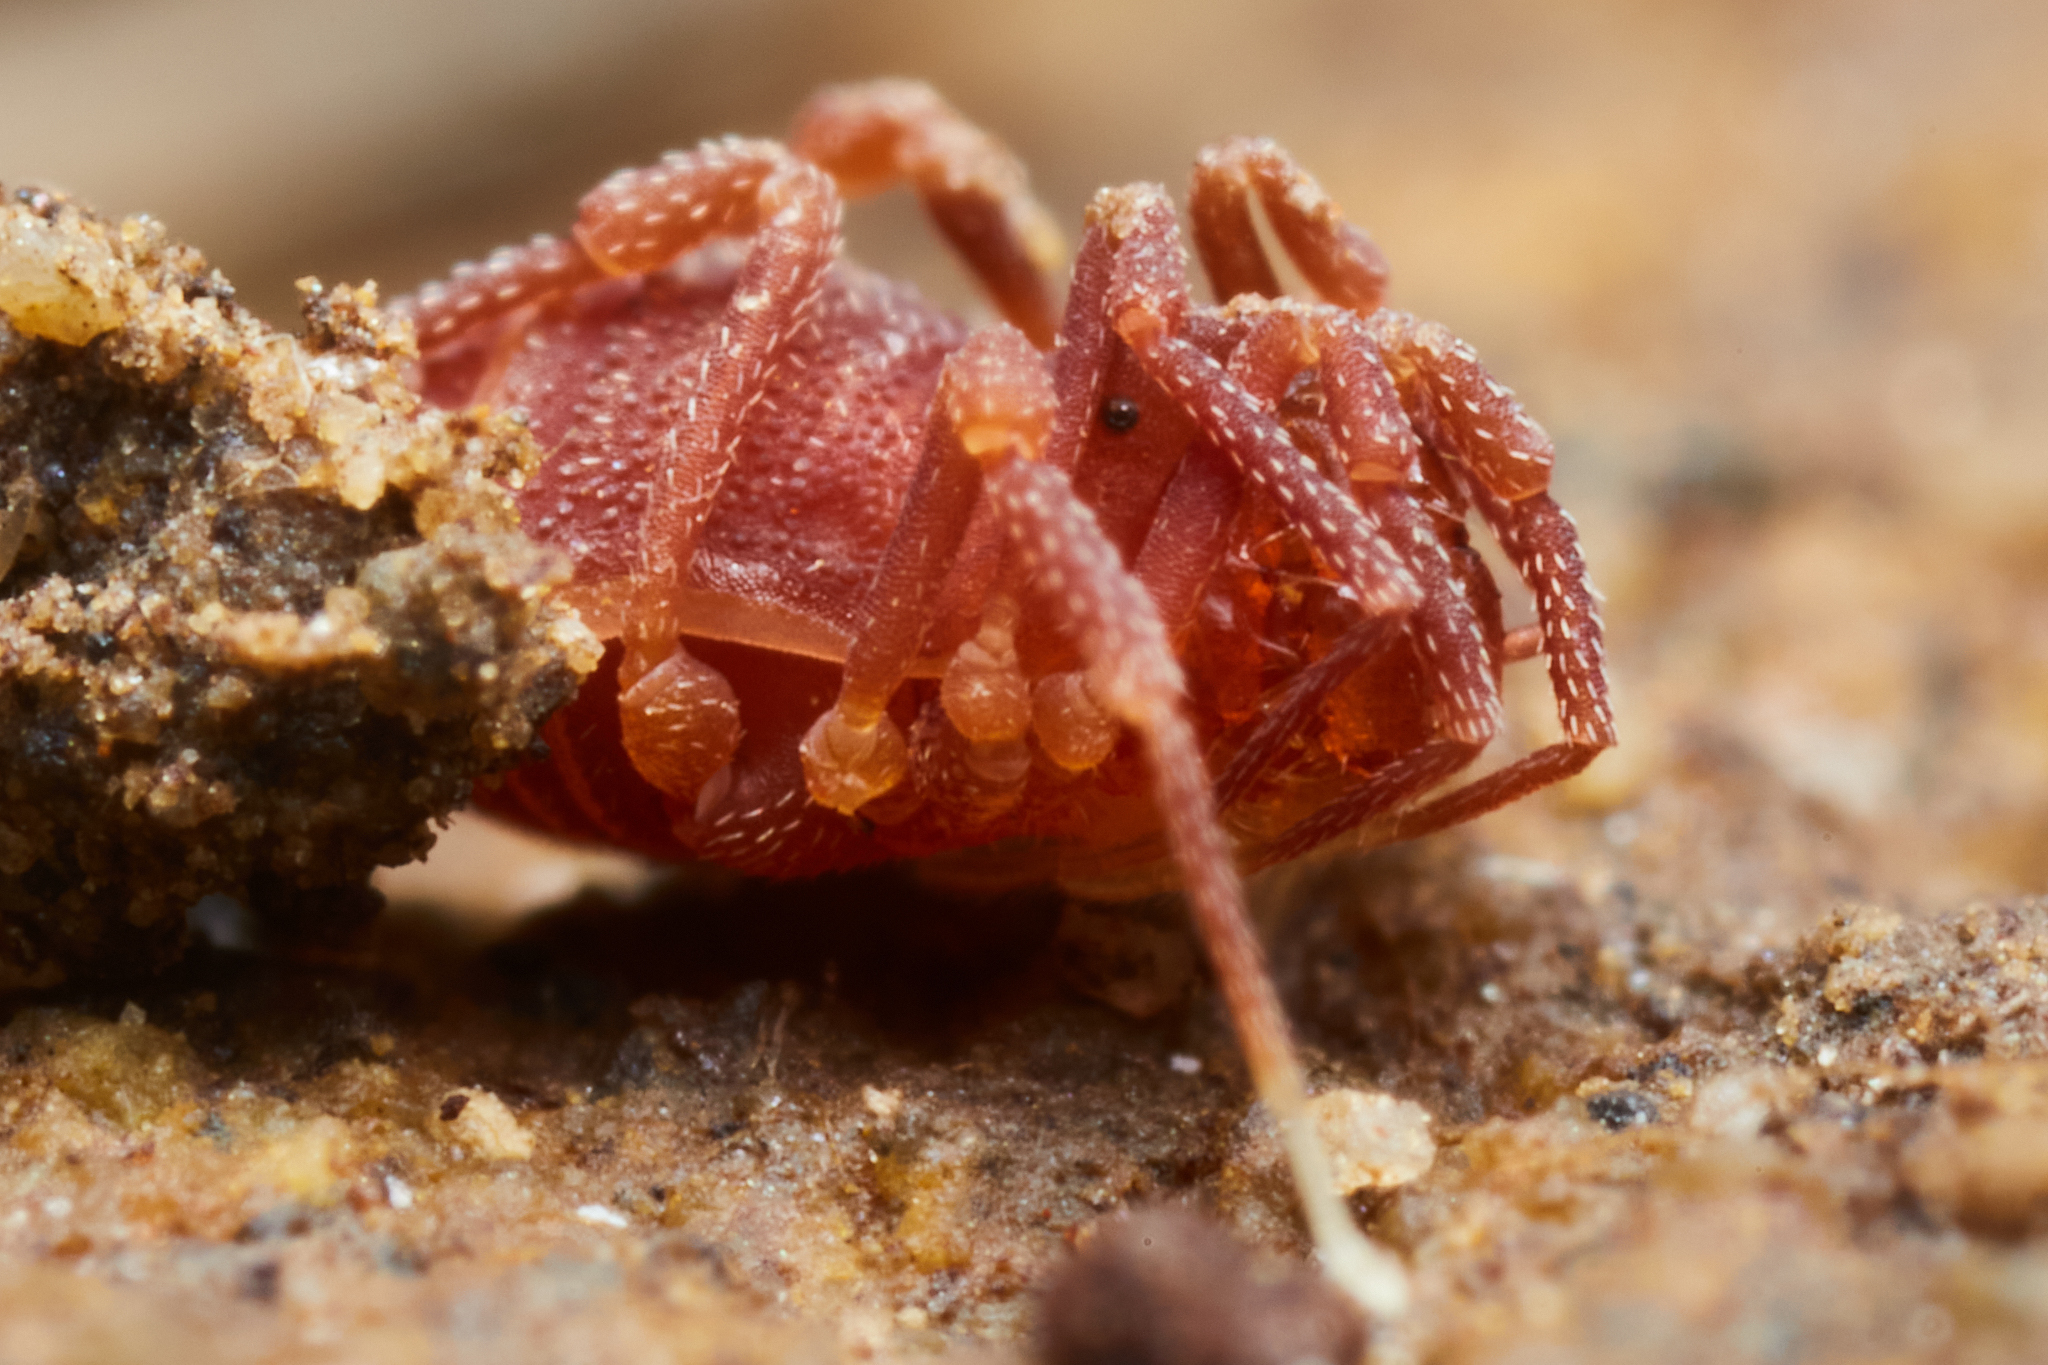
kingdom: Animalia
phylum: Arthropoda
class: Arachnida
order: Opiliones
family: Phalangodidae
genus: Sitalcina
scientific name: Sitalcina californica
